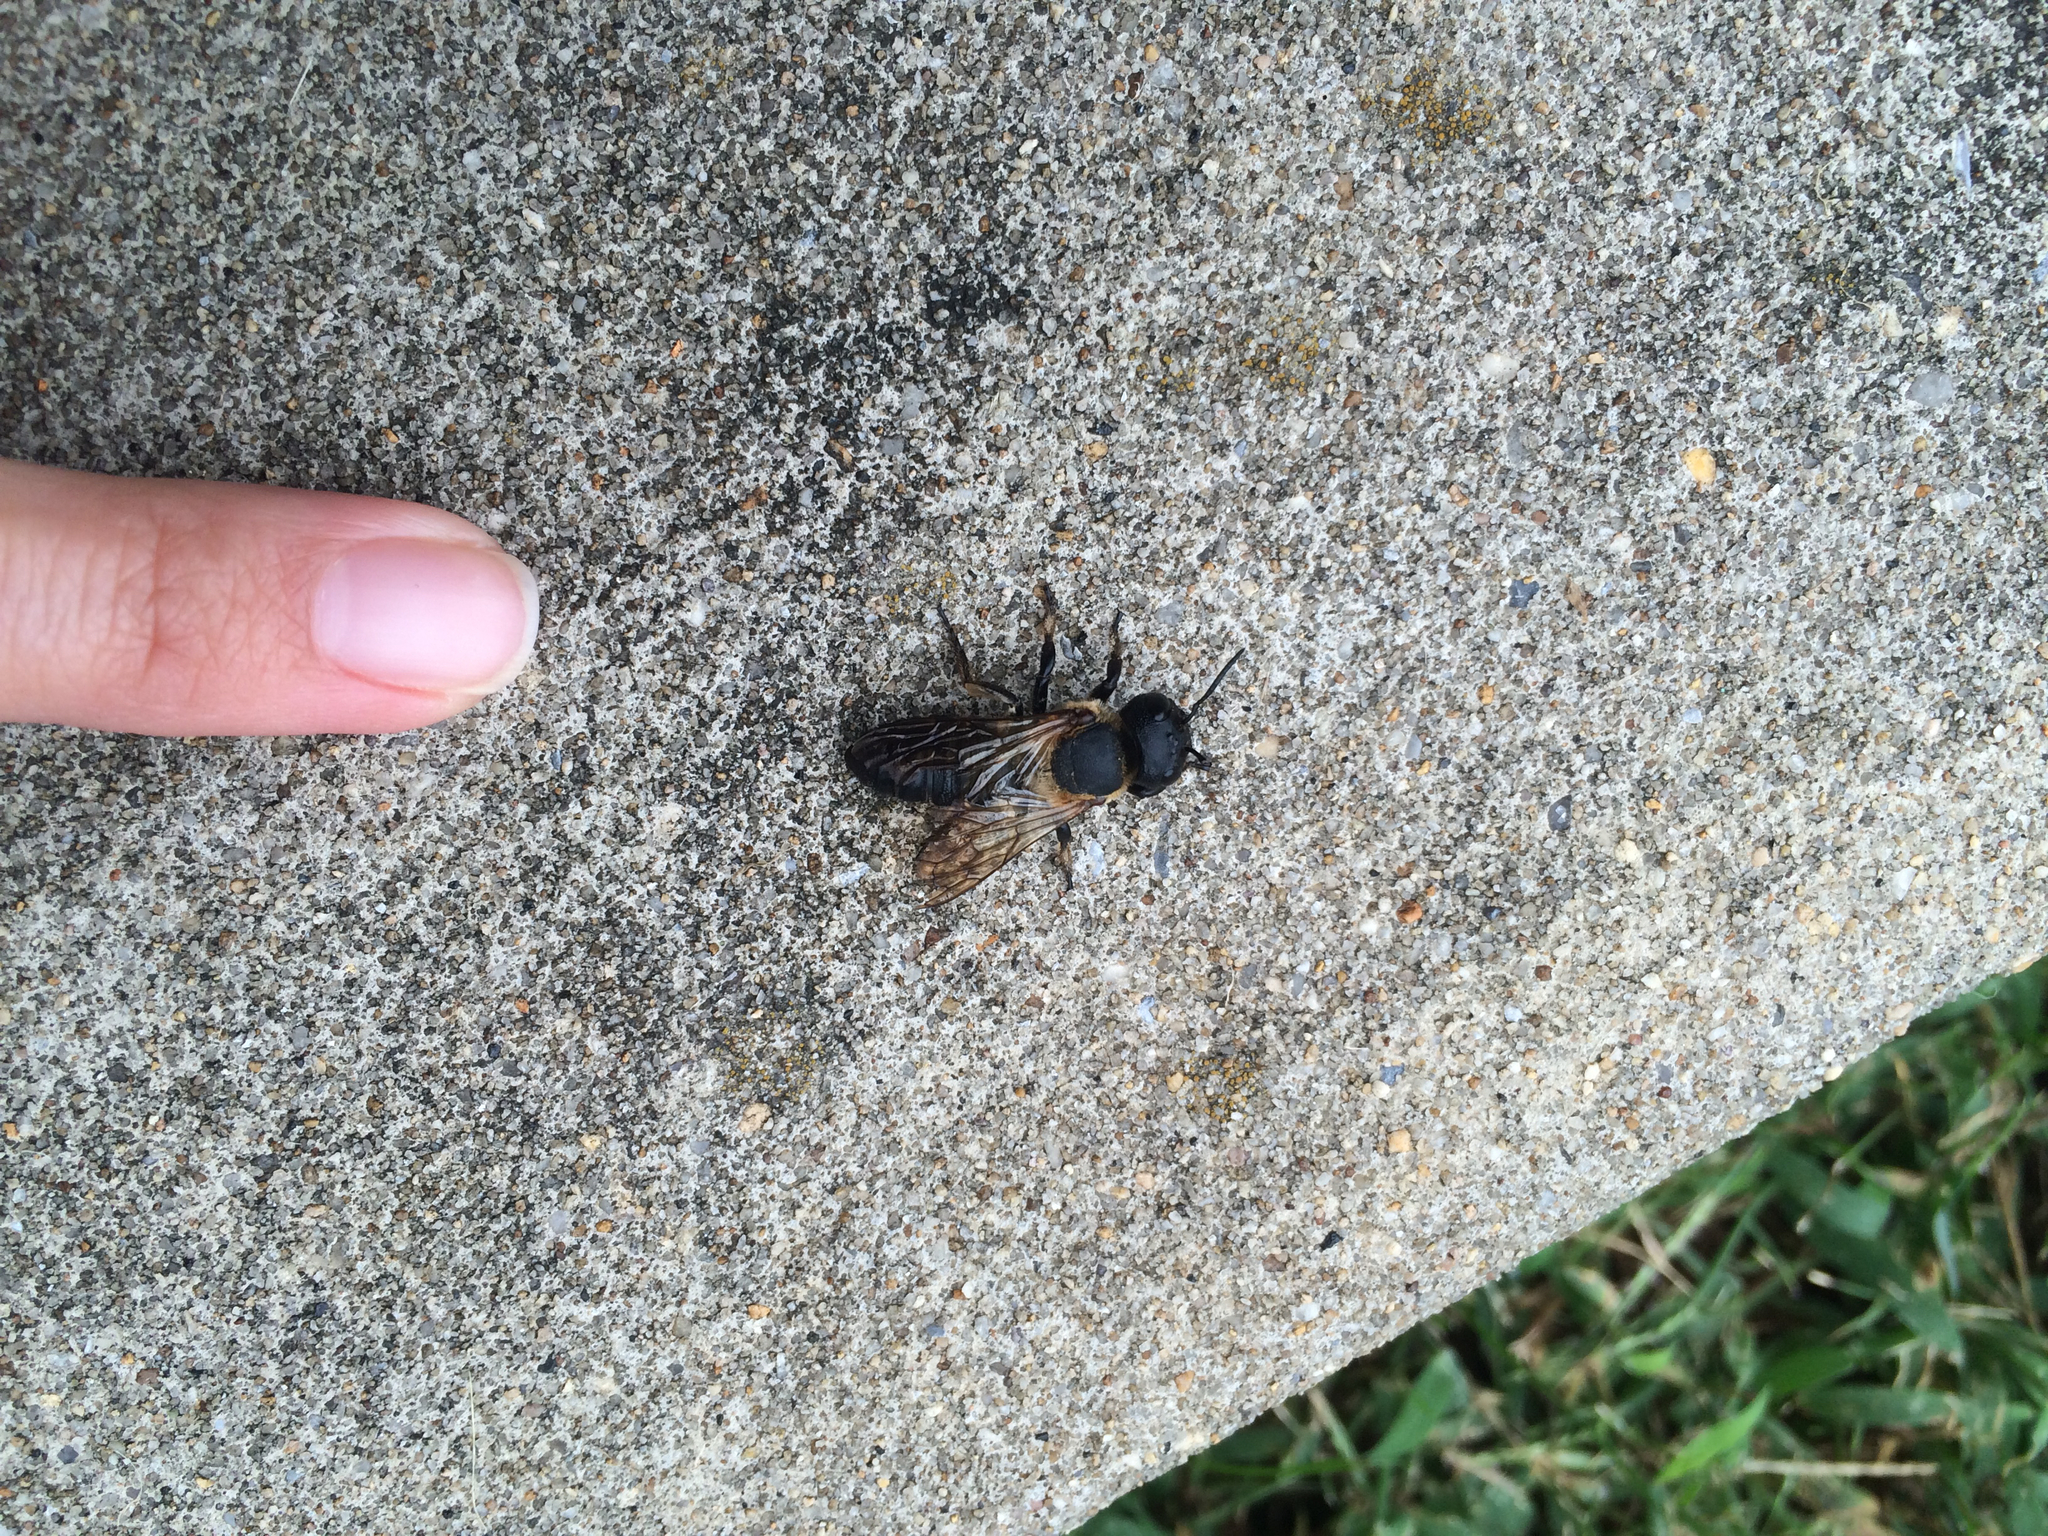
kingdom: Animalia
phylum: Arthropoda
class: Insecta
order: Hymenoptera
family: Megachilidae
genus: Megachile
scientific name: Megachile sculpturalis
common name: Sculptured resin bee
